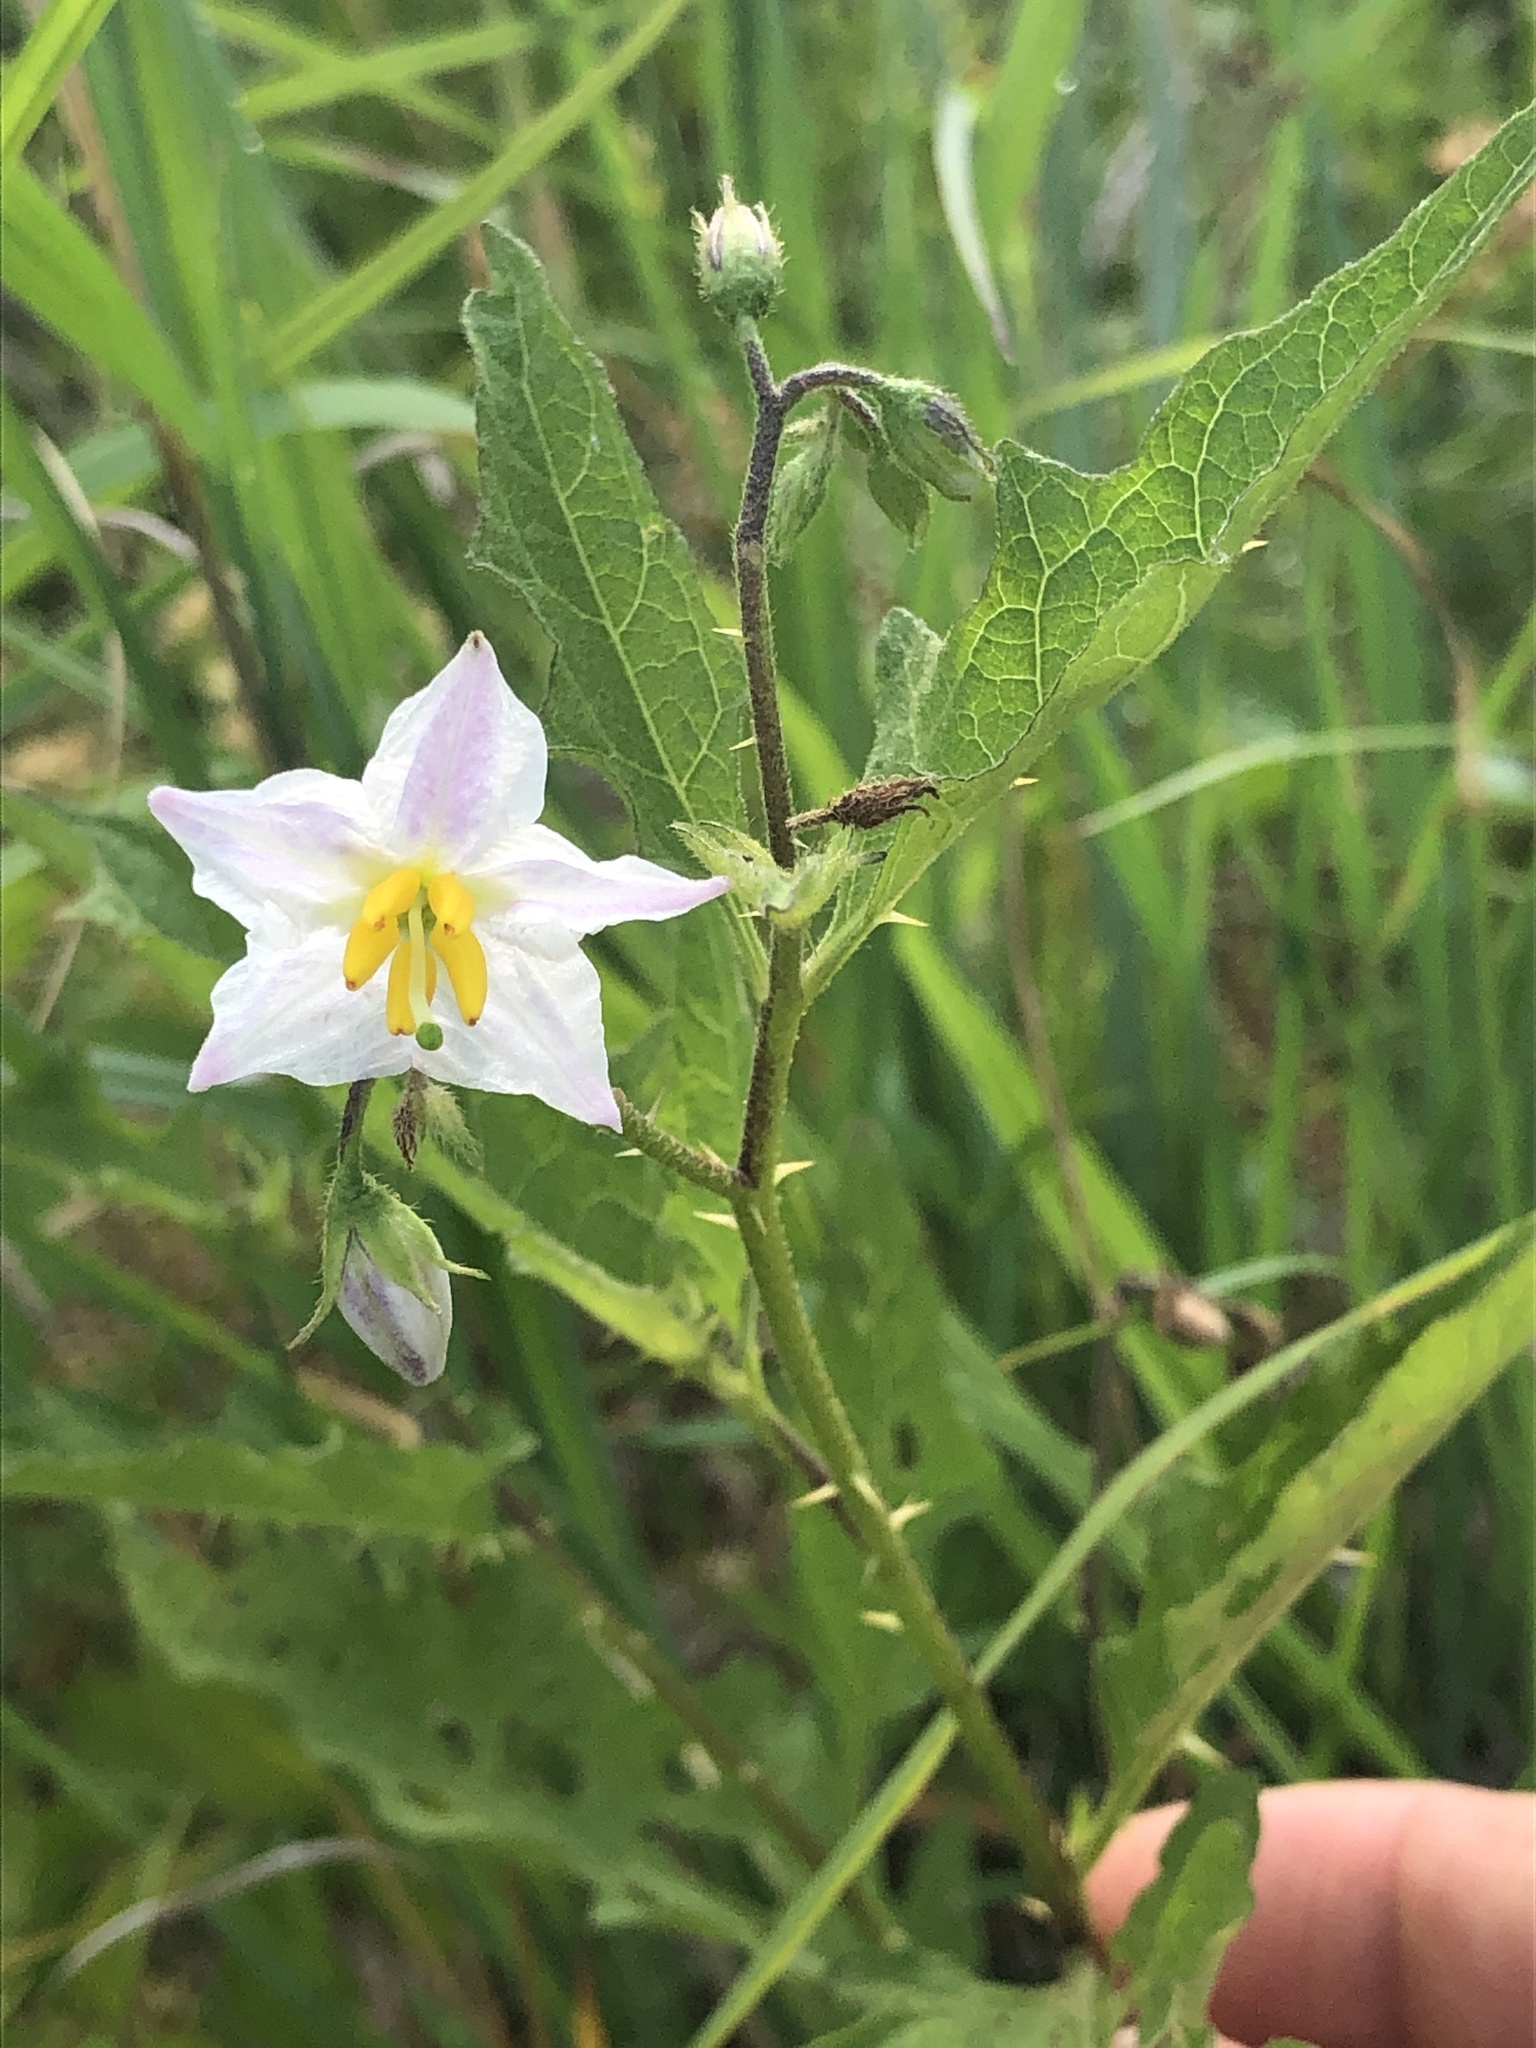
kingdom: Plantae
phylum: Tracheophyta
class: Magnoliopsida
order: Solanales
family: Solanaceae
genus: Solanum
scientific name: Solanum carolinense
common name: Horse-nettle
